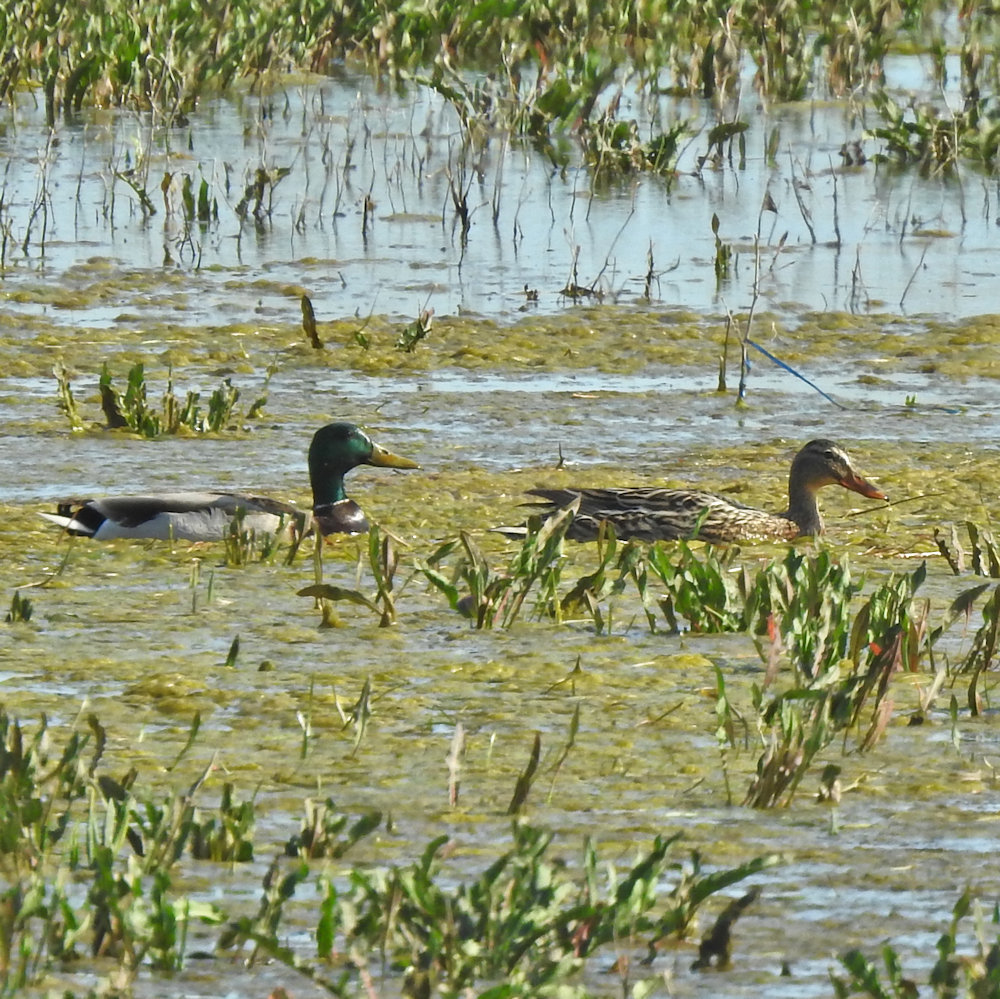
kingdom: Animalia
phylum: Chordata
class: Aves
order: Anseriformes
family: Anatidae
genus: Anas
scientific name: Anas platyrhynchos
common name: Mallard
